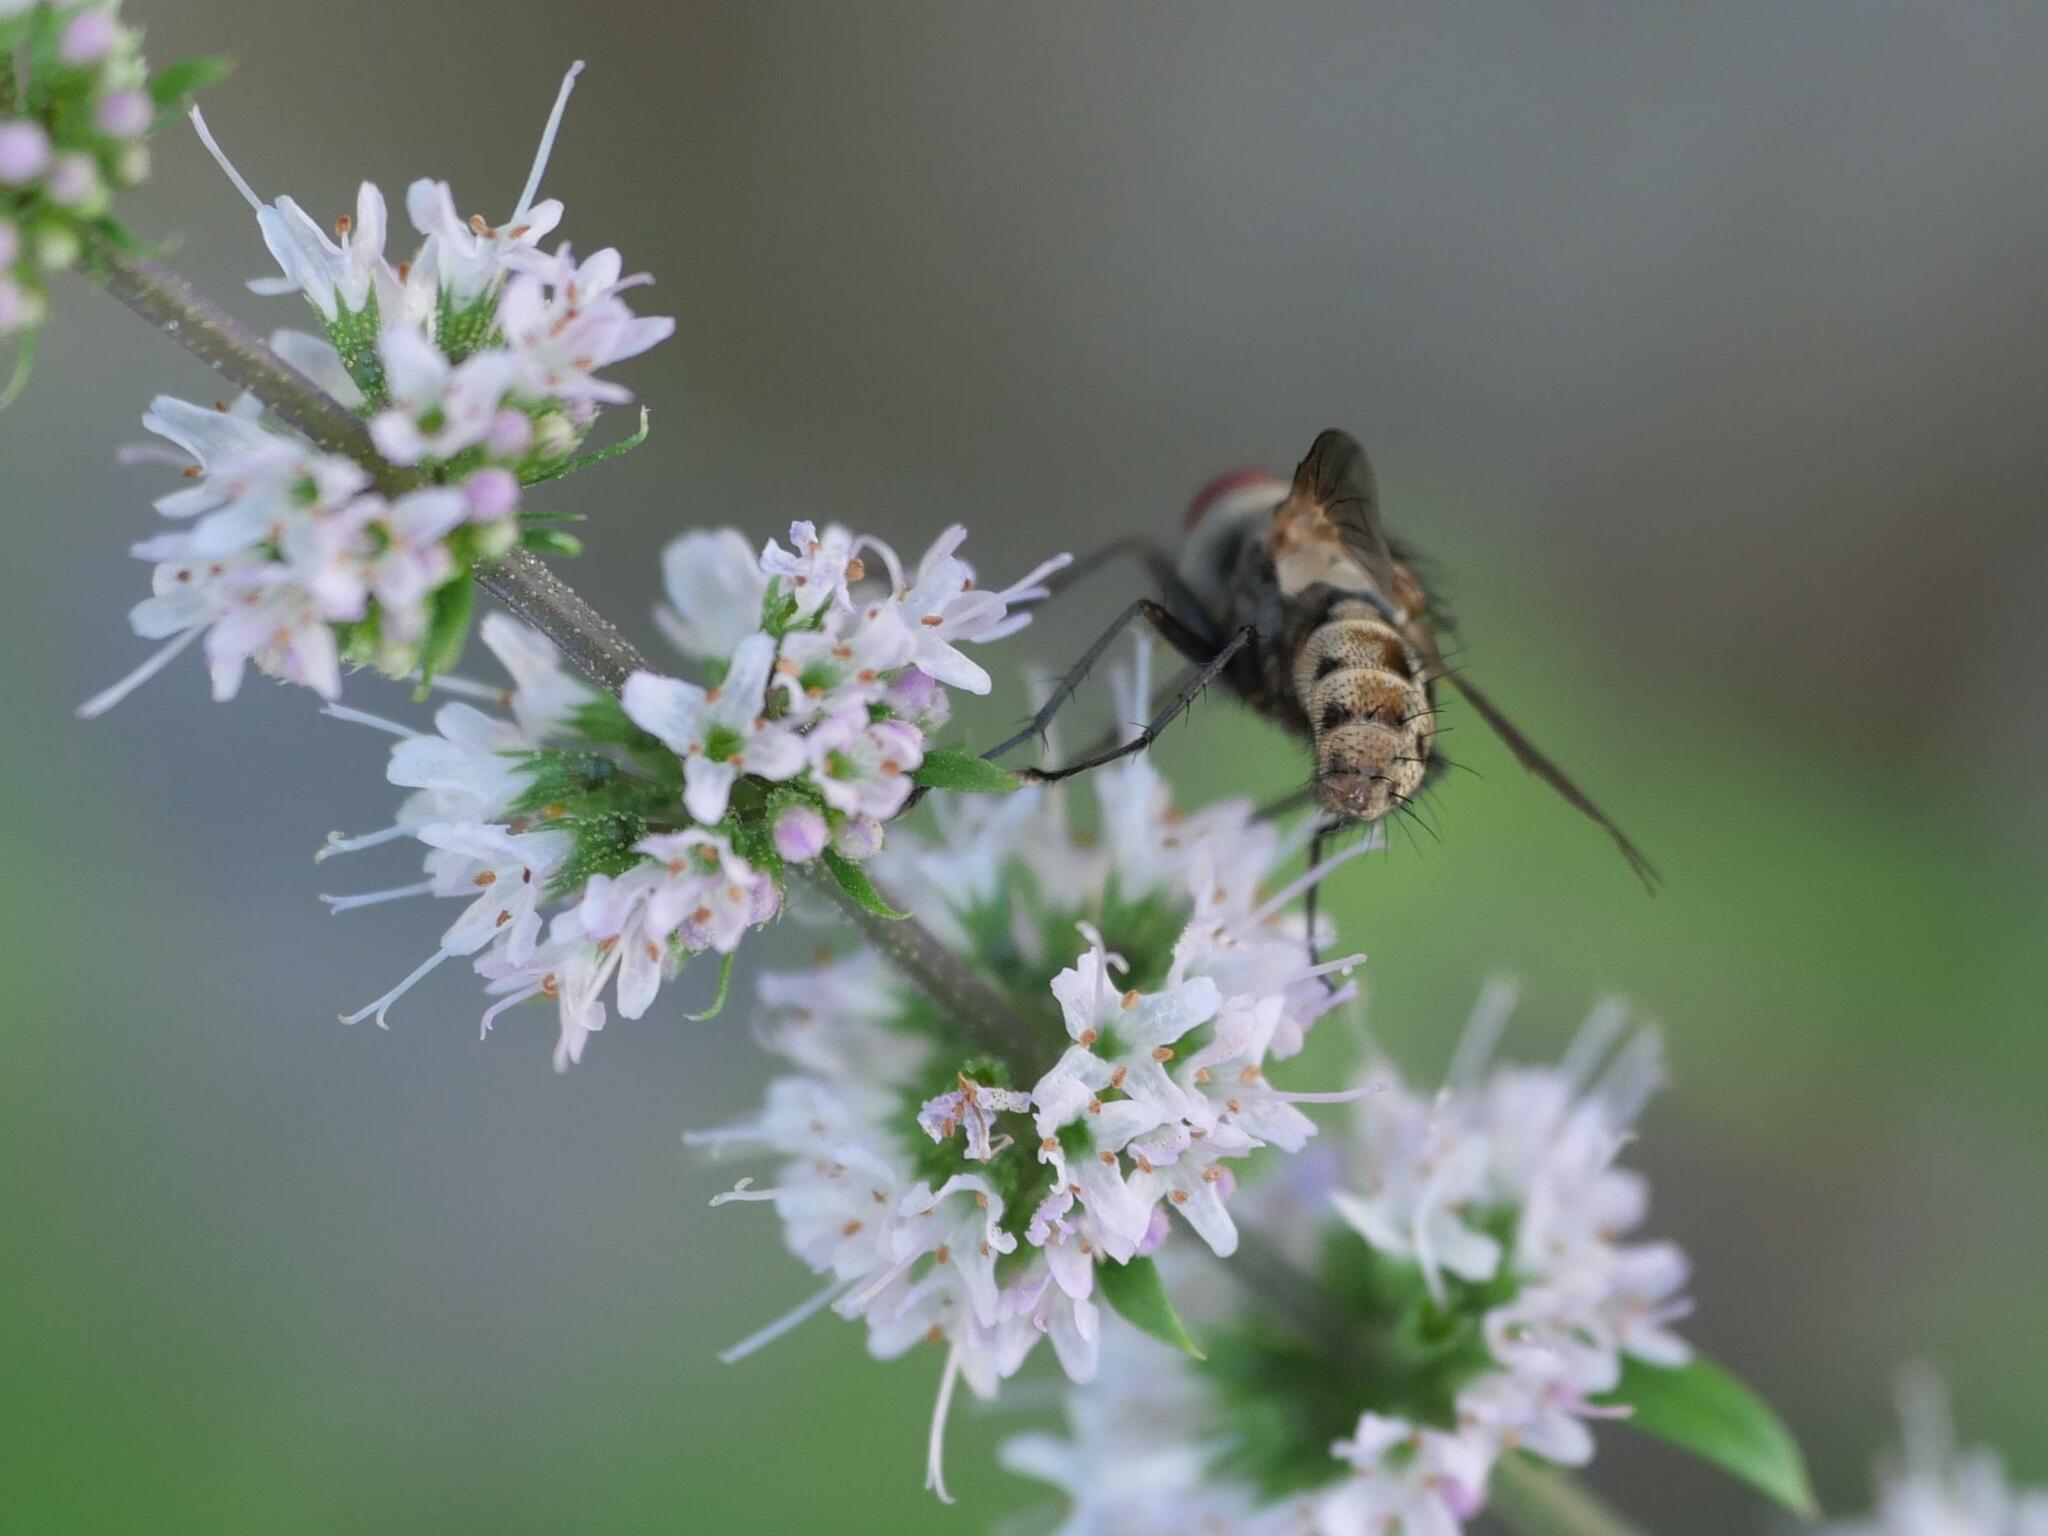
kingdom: Animalia
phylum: Arthropoda
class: Insecta
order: Diptera
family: Tachinidae
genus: Stomina
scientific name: Stomina
